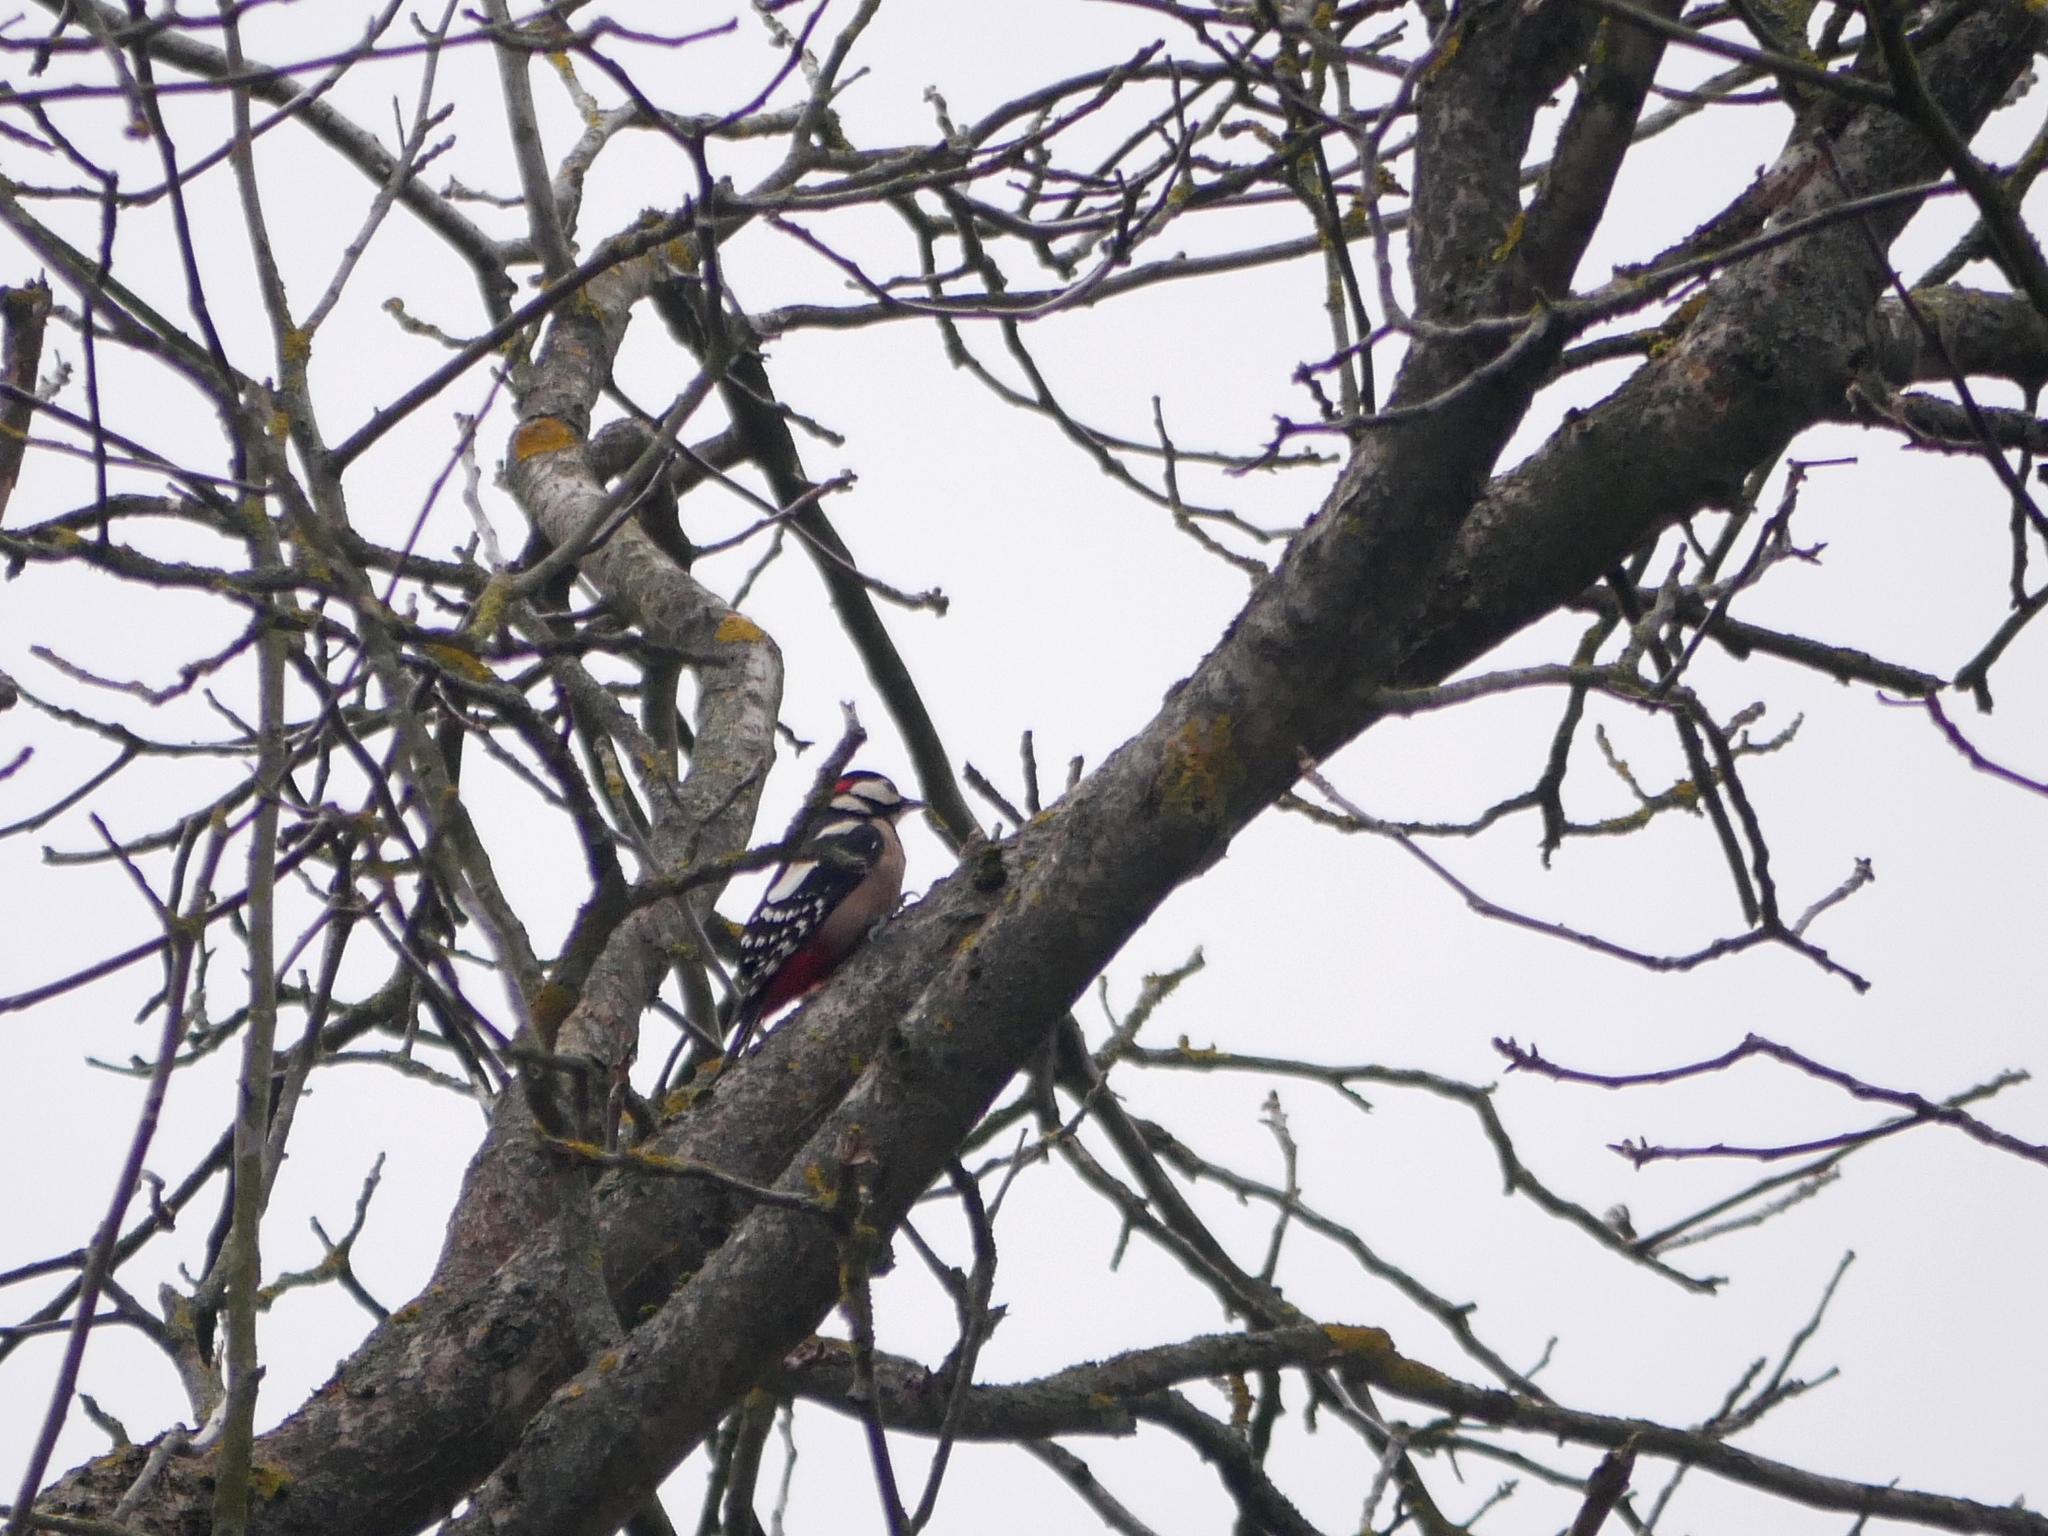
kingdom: Animalia
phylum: Chordata
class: Aves
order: Piciformes
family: Picidae
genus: Dendrocopos
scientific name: Dendrocopos major
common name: Great spotted woodpecker
